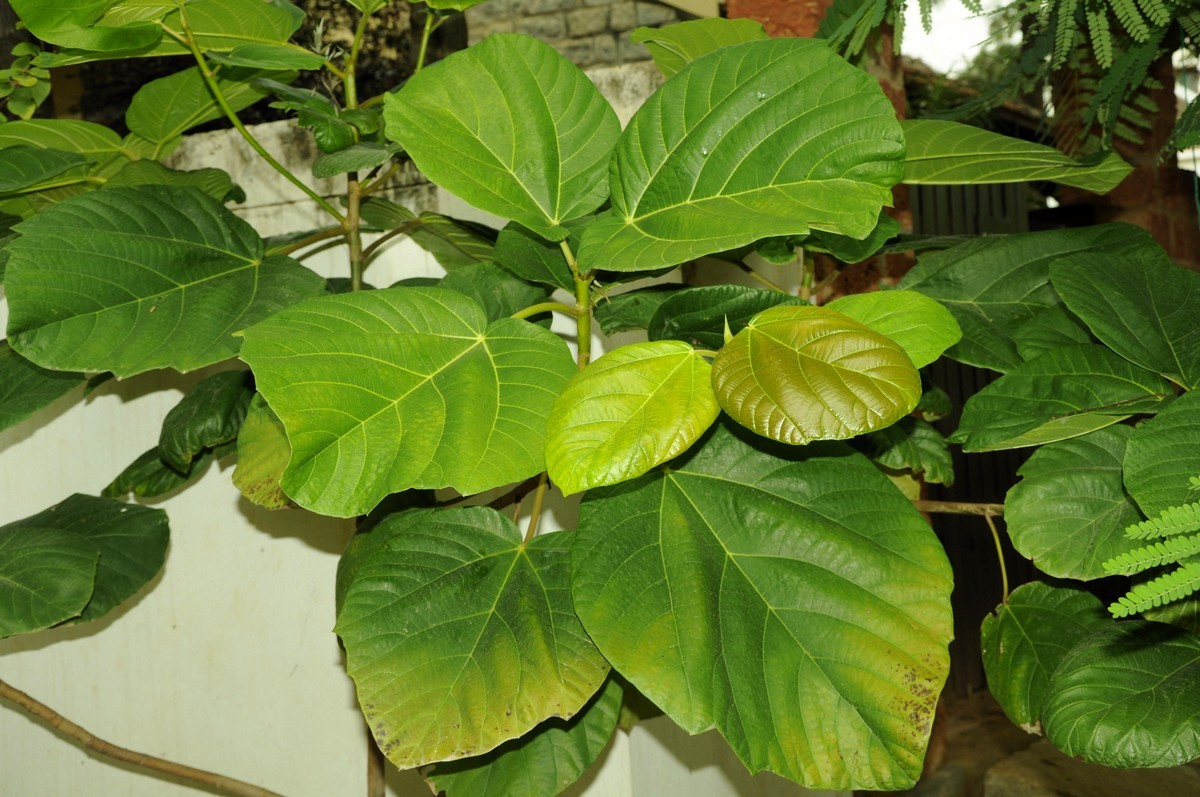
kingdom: Plantae
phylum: Tracheophyta
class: Magnoliopsida
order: Rosales
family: Moraceae
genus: Ficus
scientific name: Ficus auriculata
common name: Roxburgh fig
